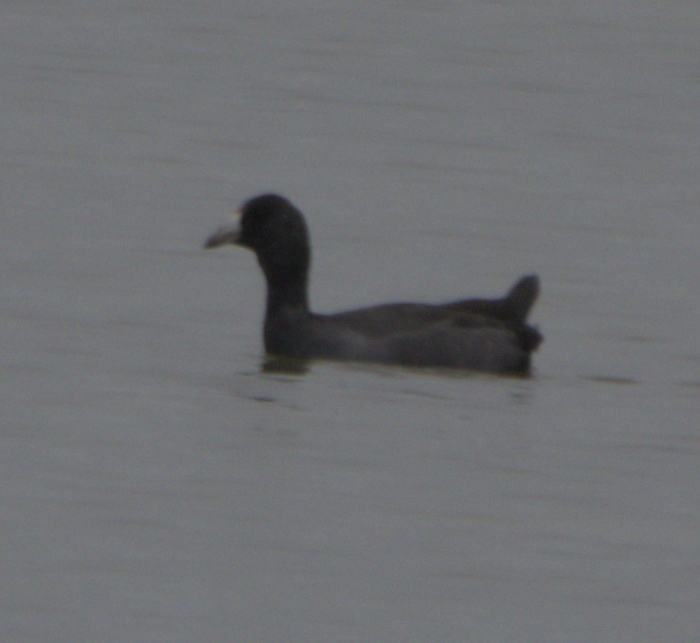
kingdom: Animalia
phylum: Chordata
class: Aves
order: Gruiformes
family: Rallidae
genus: Fulica
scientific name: Fulica americana
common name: American coot
